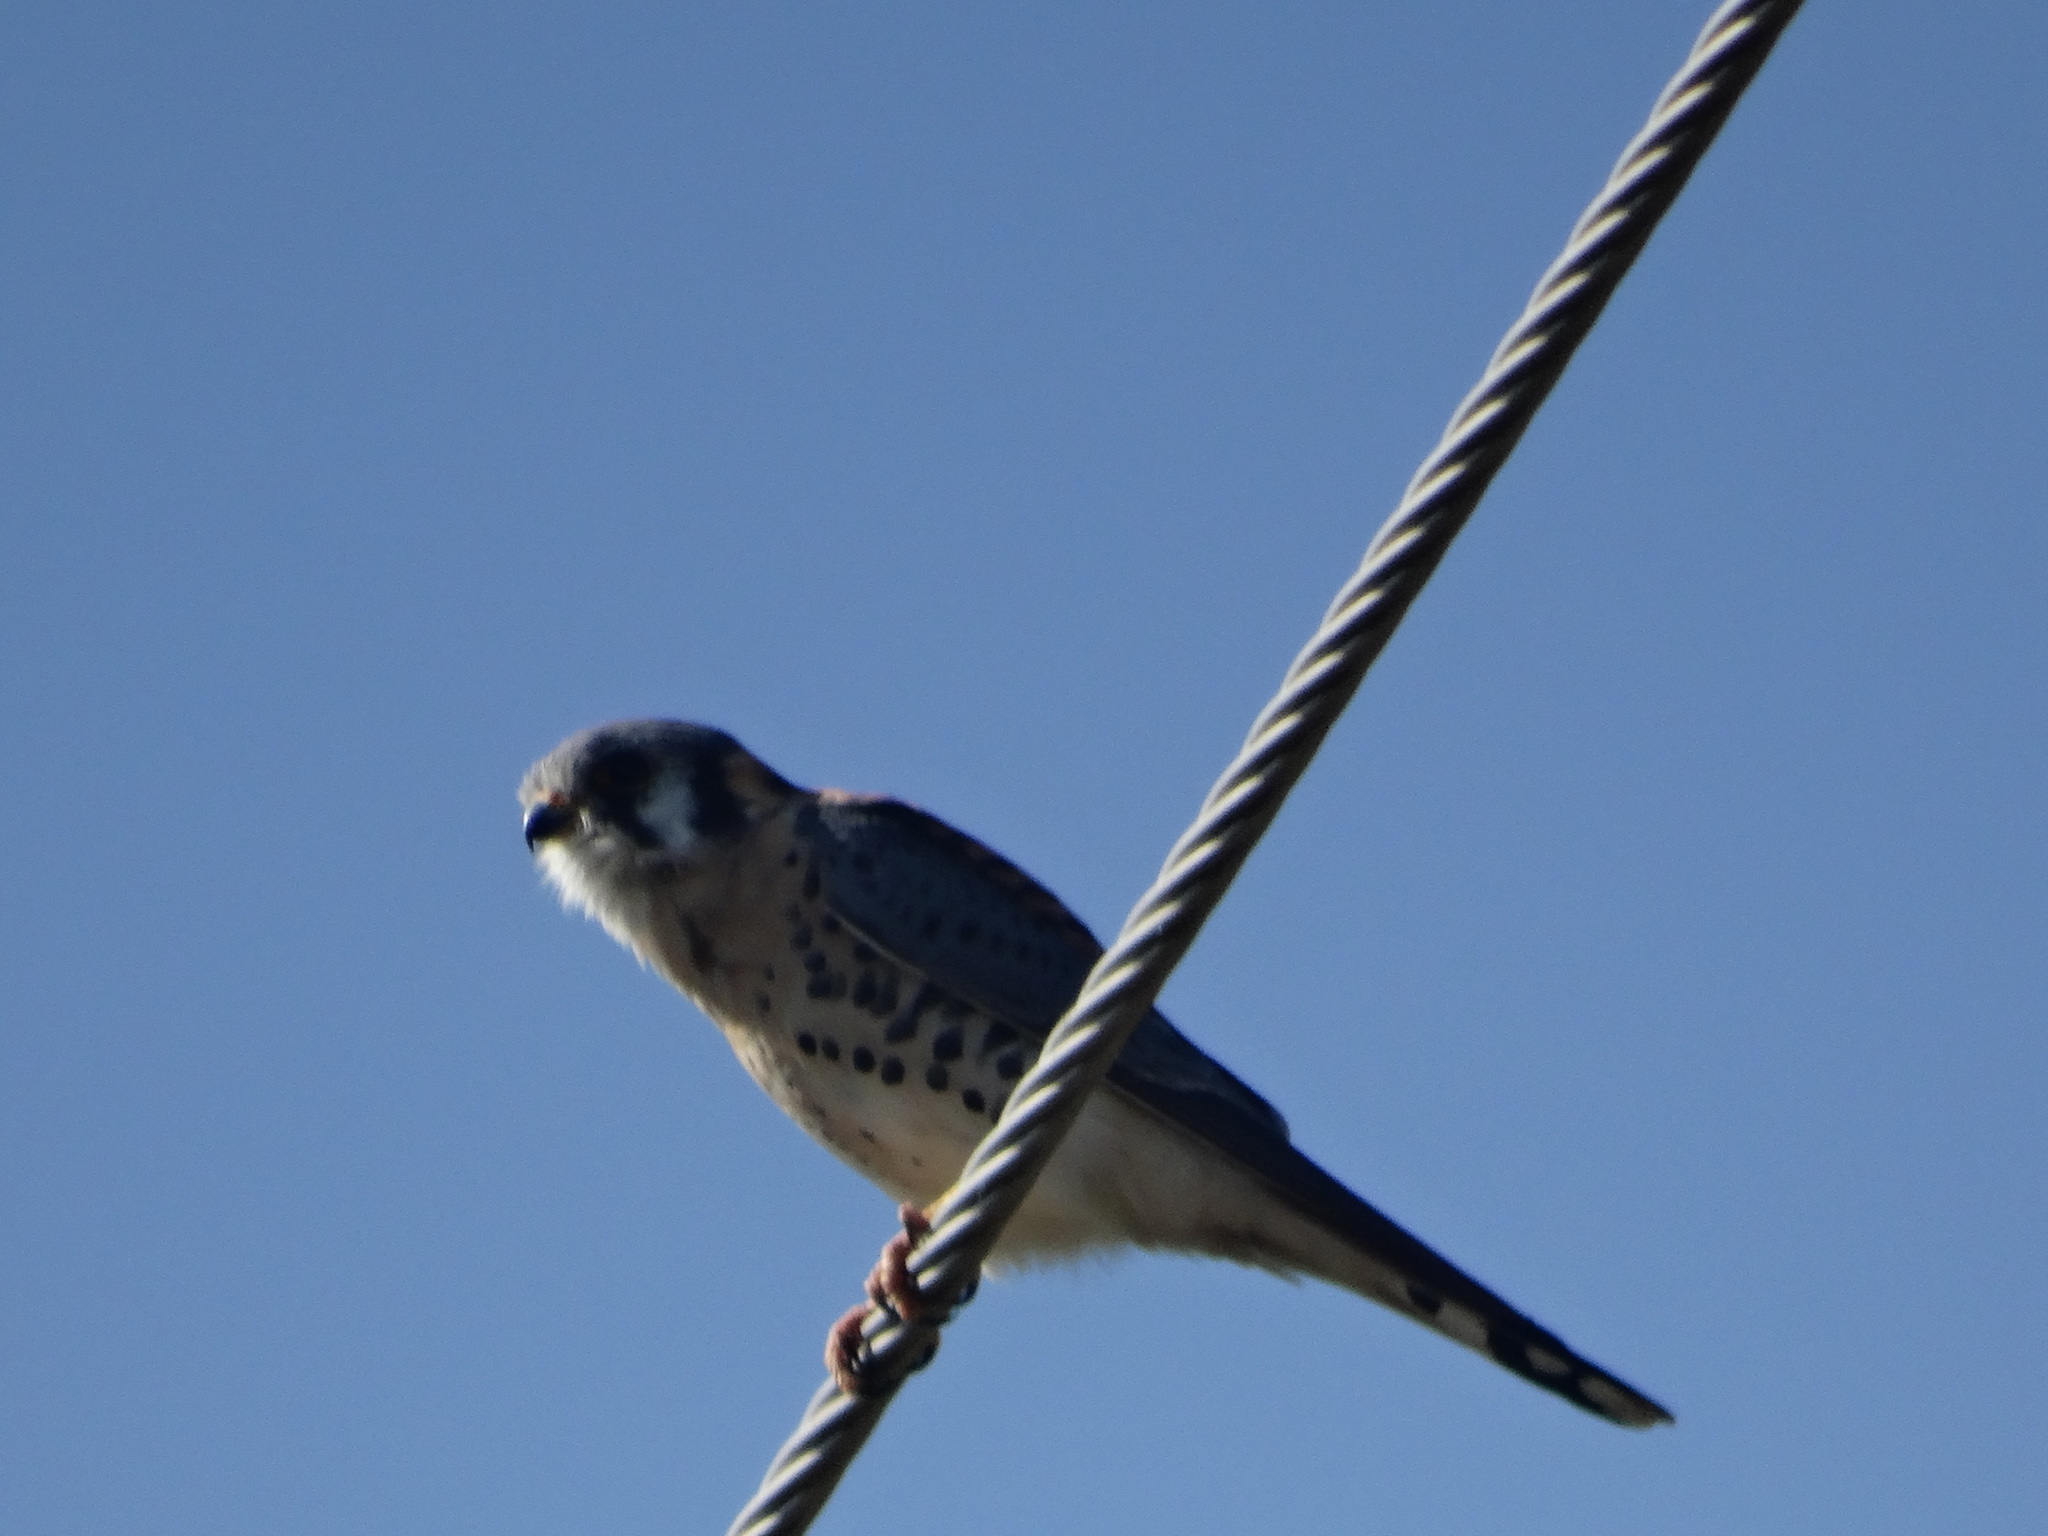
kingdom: Animalia
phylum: Chordata
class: Aves
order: Falconiformes
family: Falconidae
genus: Falco
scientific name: Falco sparverius
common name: American kestrel
